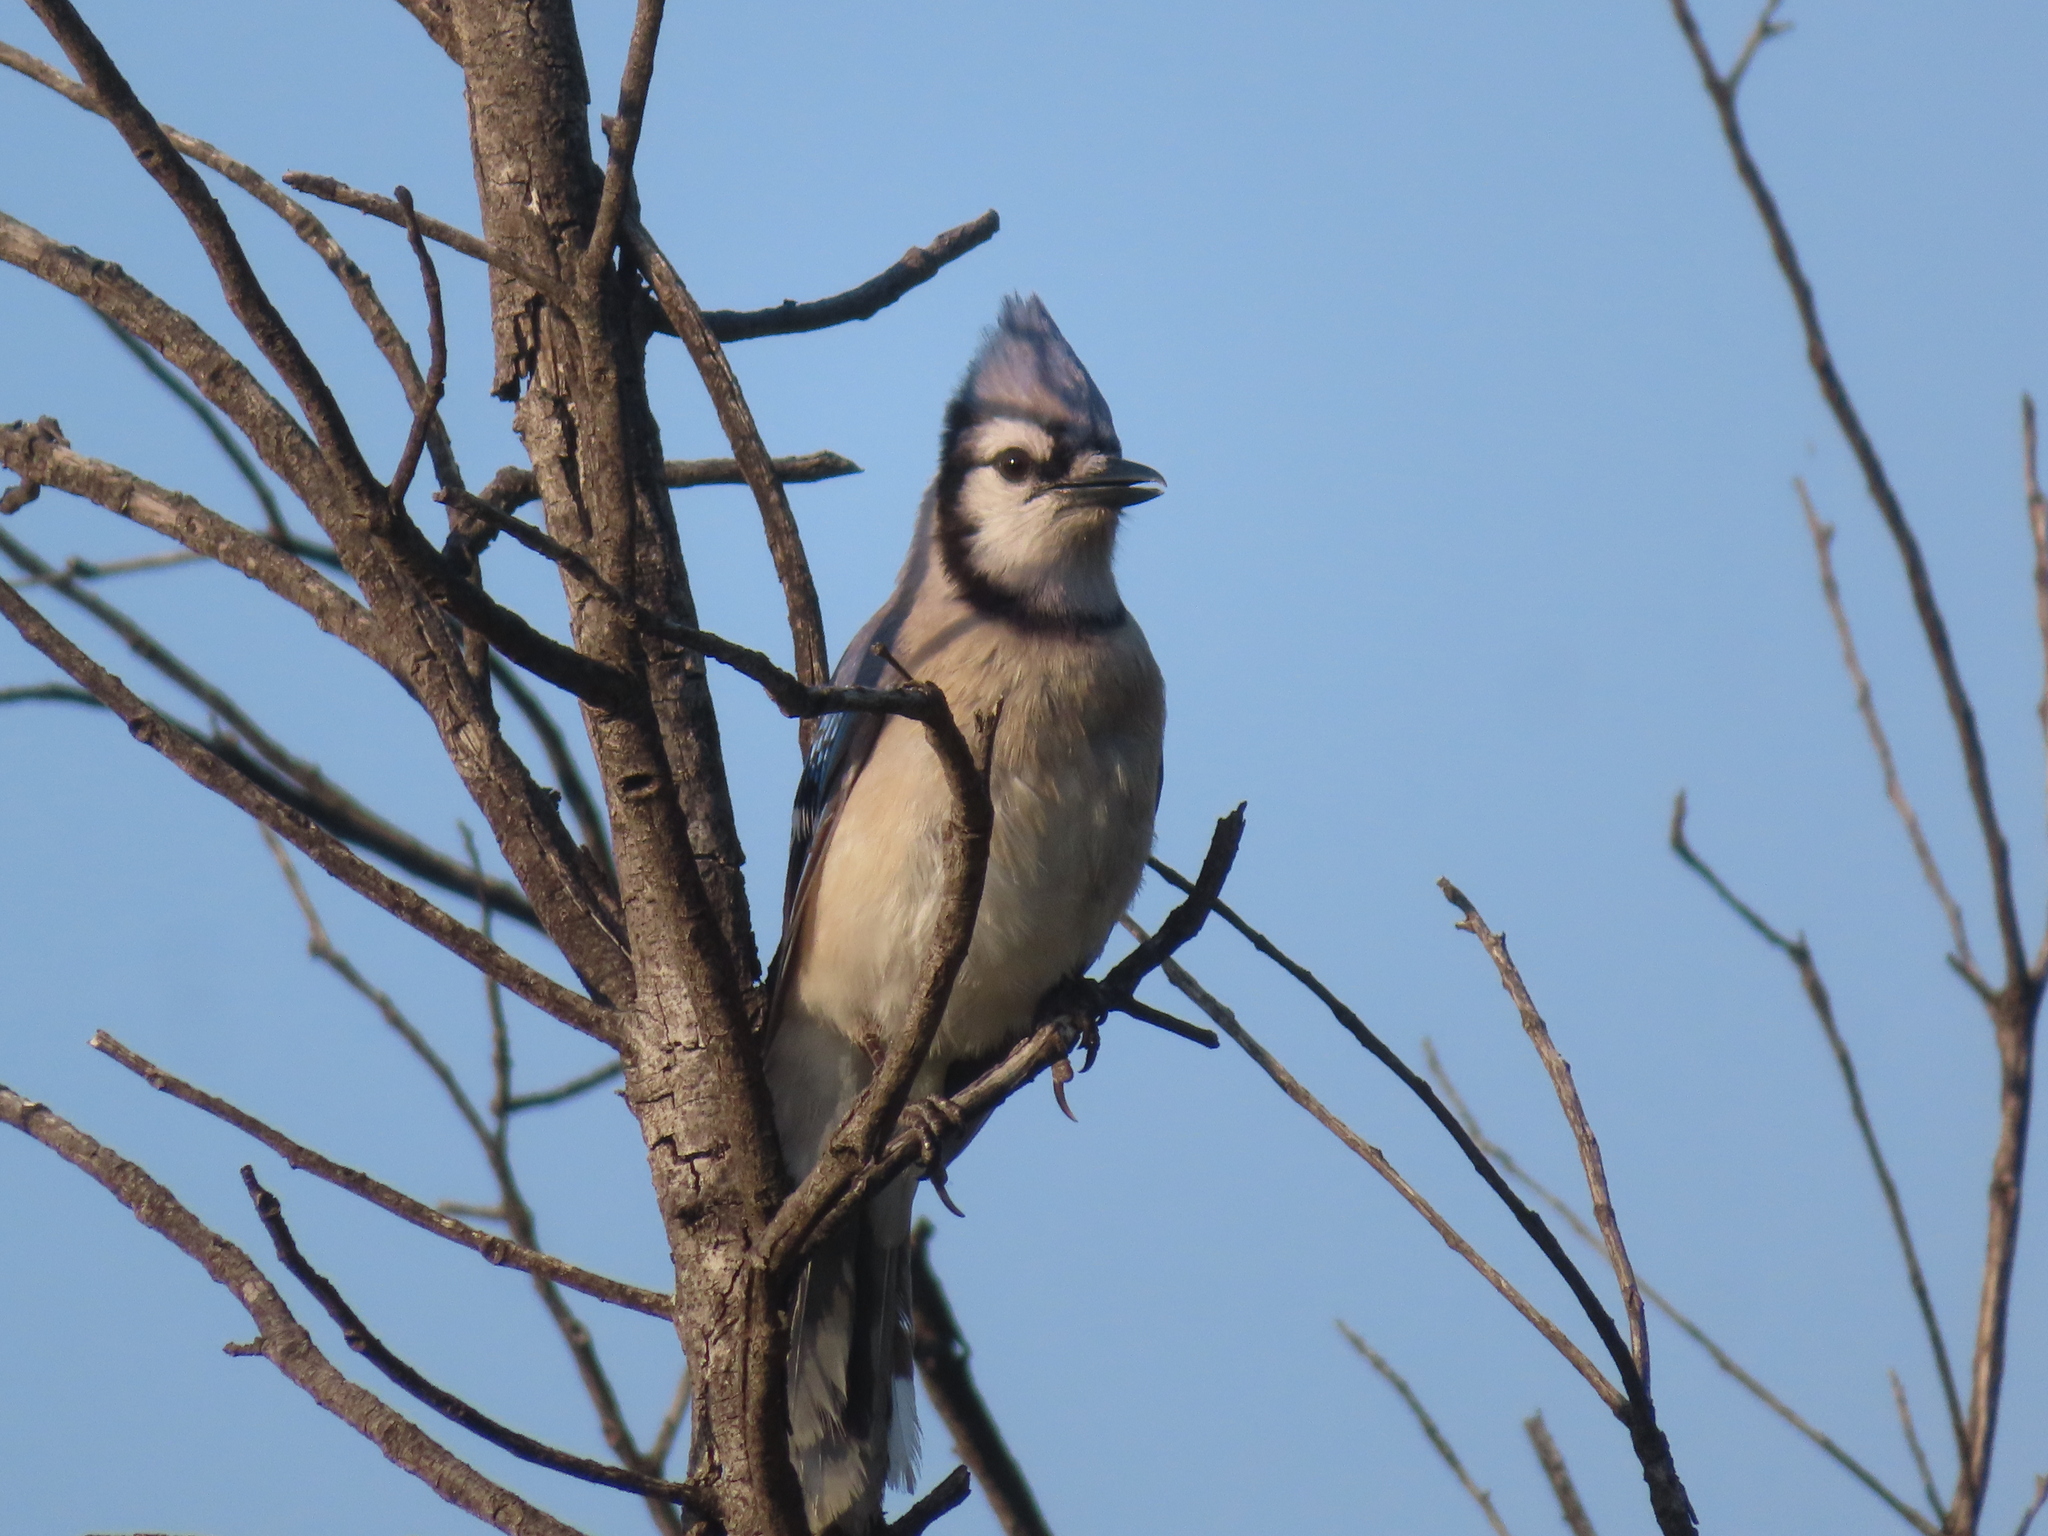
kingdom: Animalia
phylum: Chordata
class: Aves
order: Passeriformes
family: Corvidae
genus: Cyanocitta
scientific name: Cyanocitta cristata
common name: Blue jay
